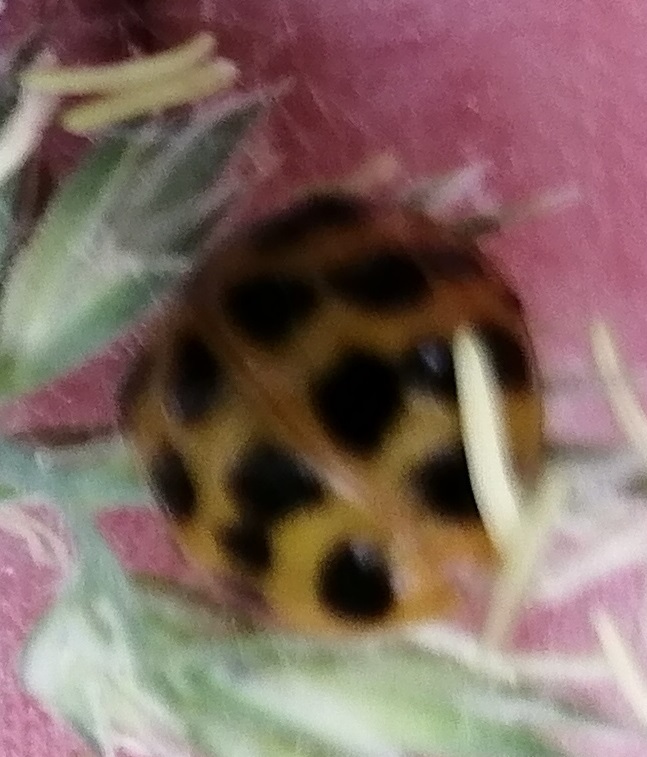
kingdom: Animalia
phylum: Arthropoda
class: Insecta
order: Coleoptera
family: Coccinellidae
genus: Harmonia
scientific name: Harmonia axyridis
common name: Harlequin ladybird
